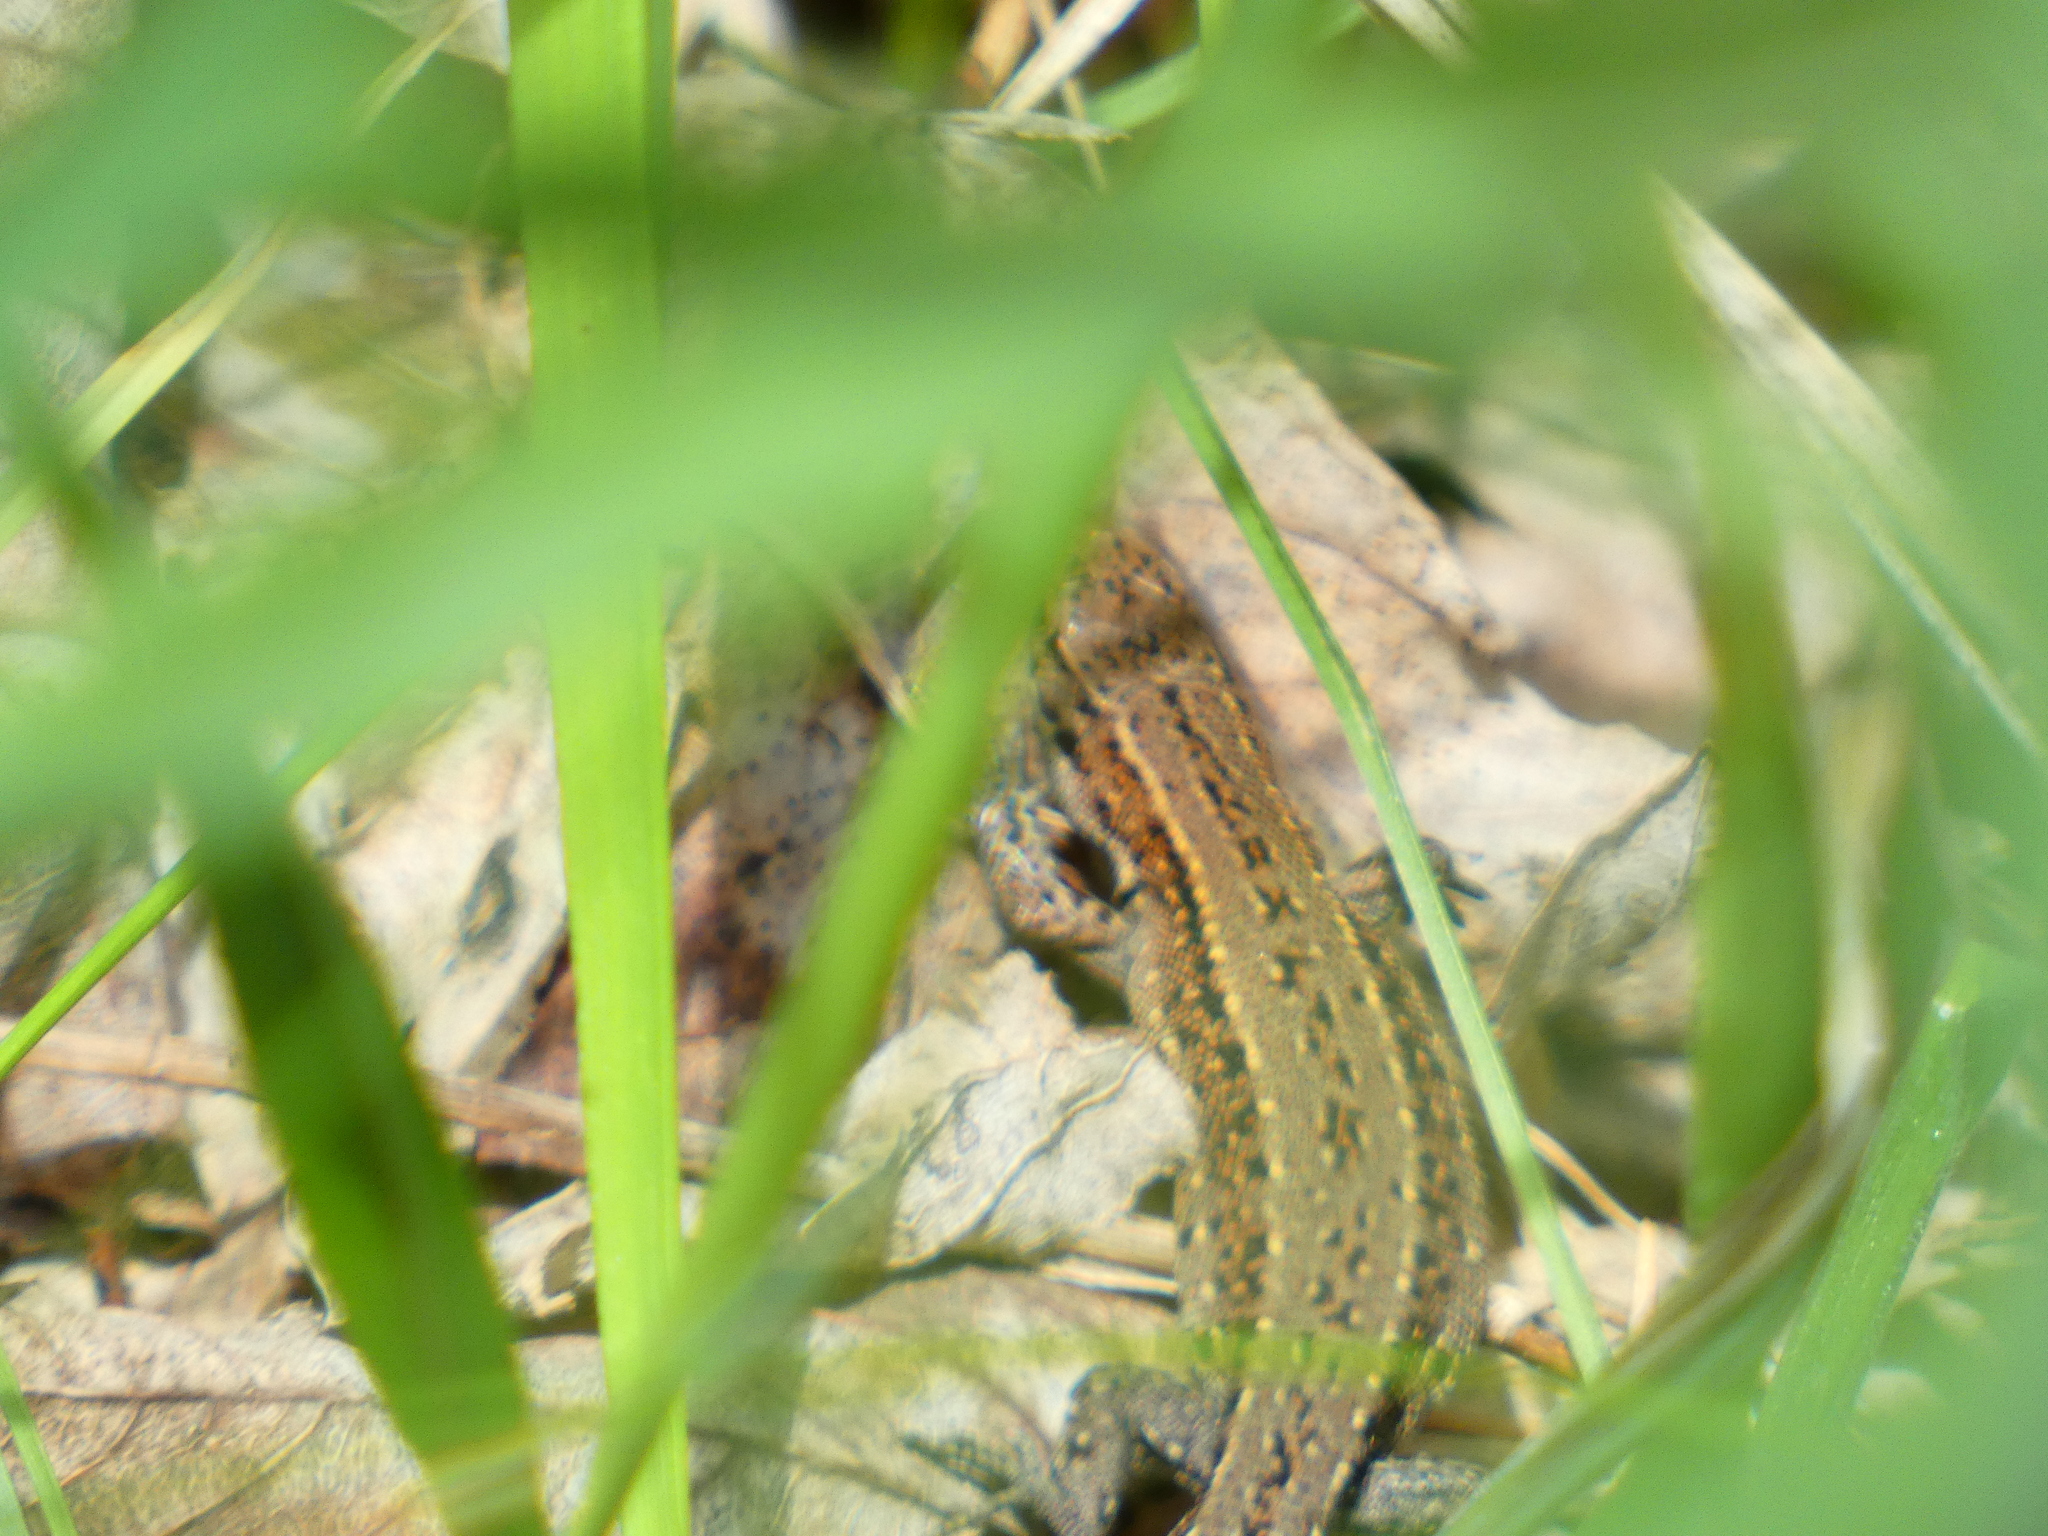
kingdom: Animalia
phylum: Chordata
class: Squamata
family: Lacertidae
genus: Zootoca
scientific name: Zootoca vivipara
